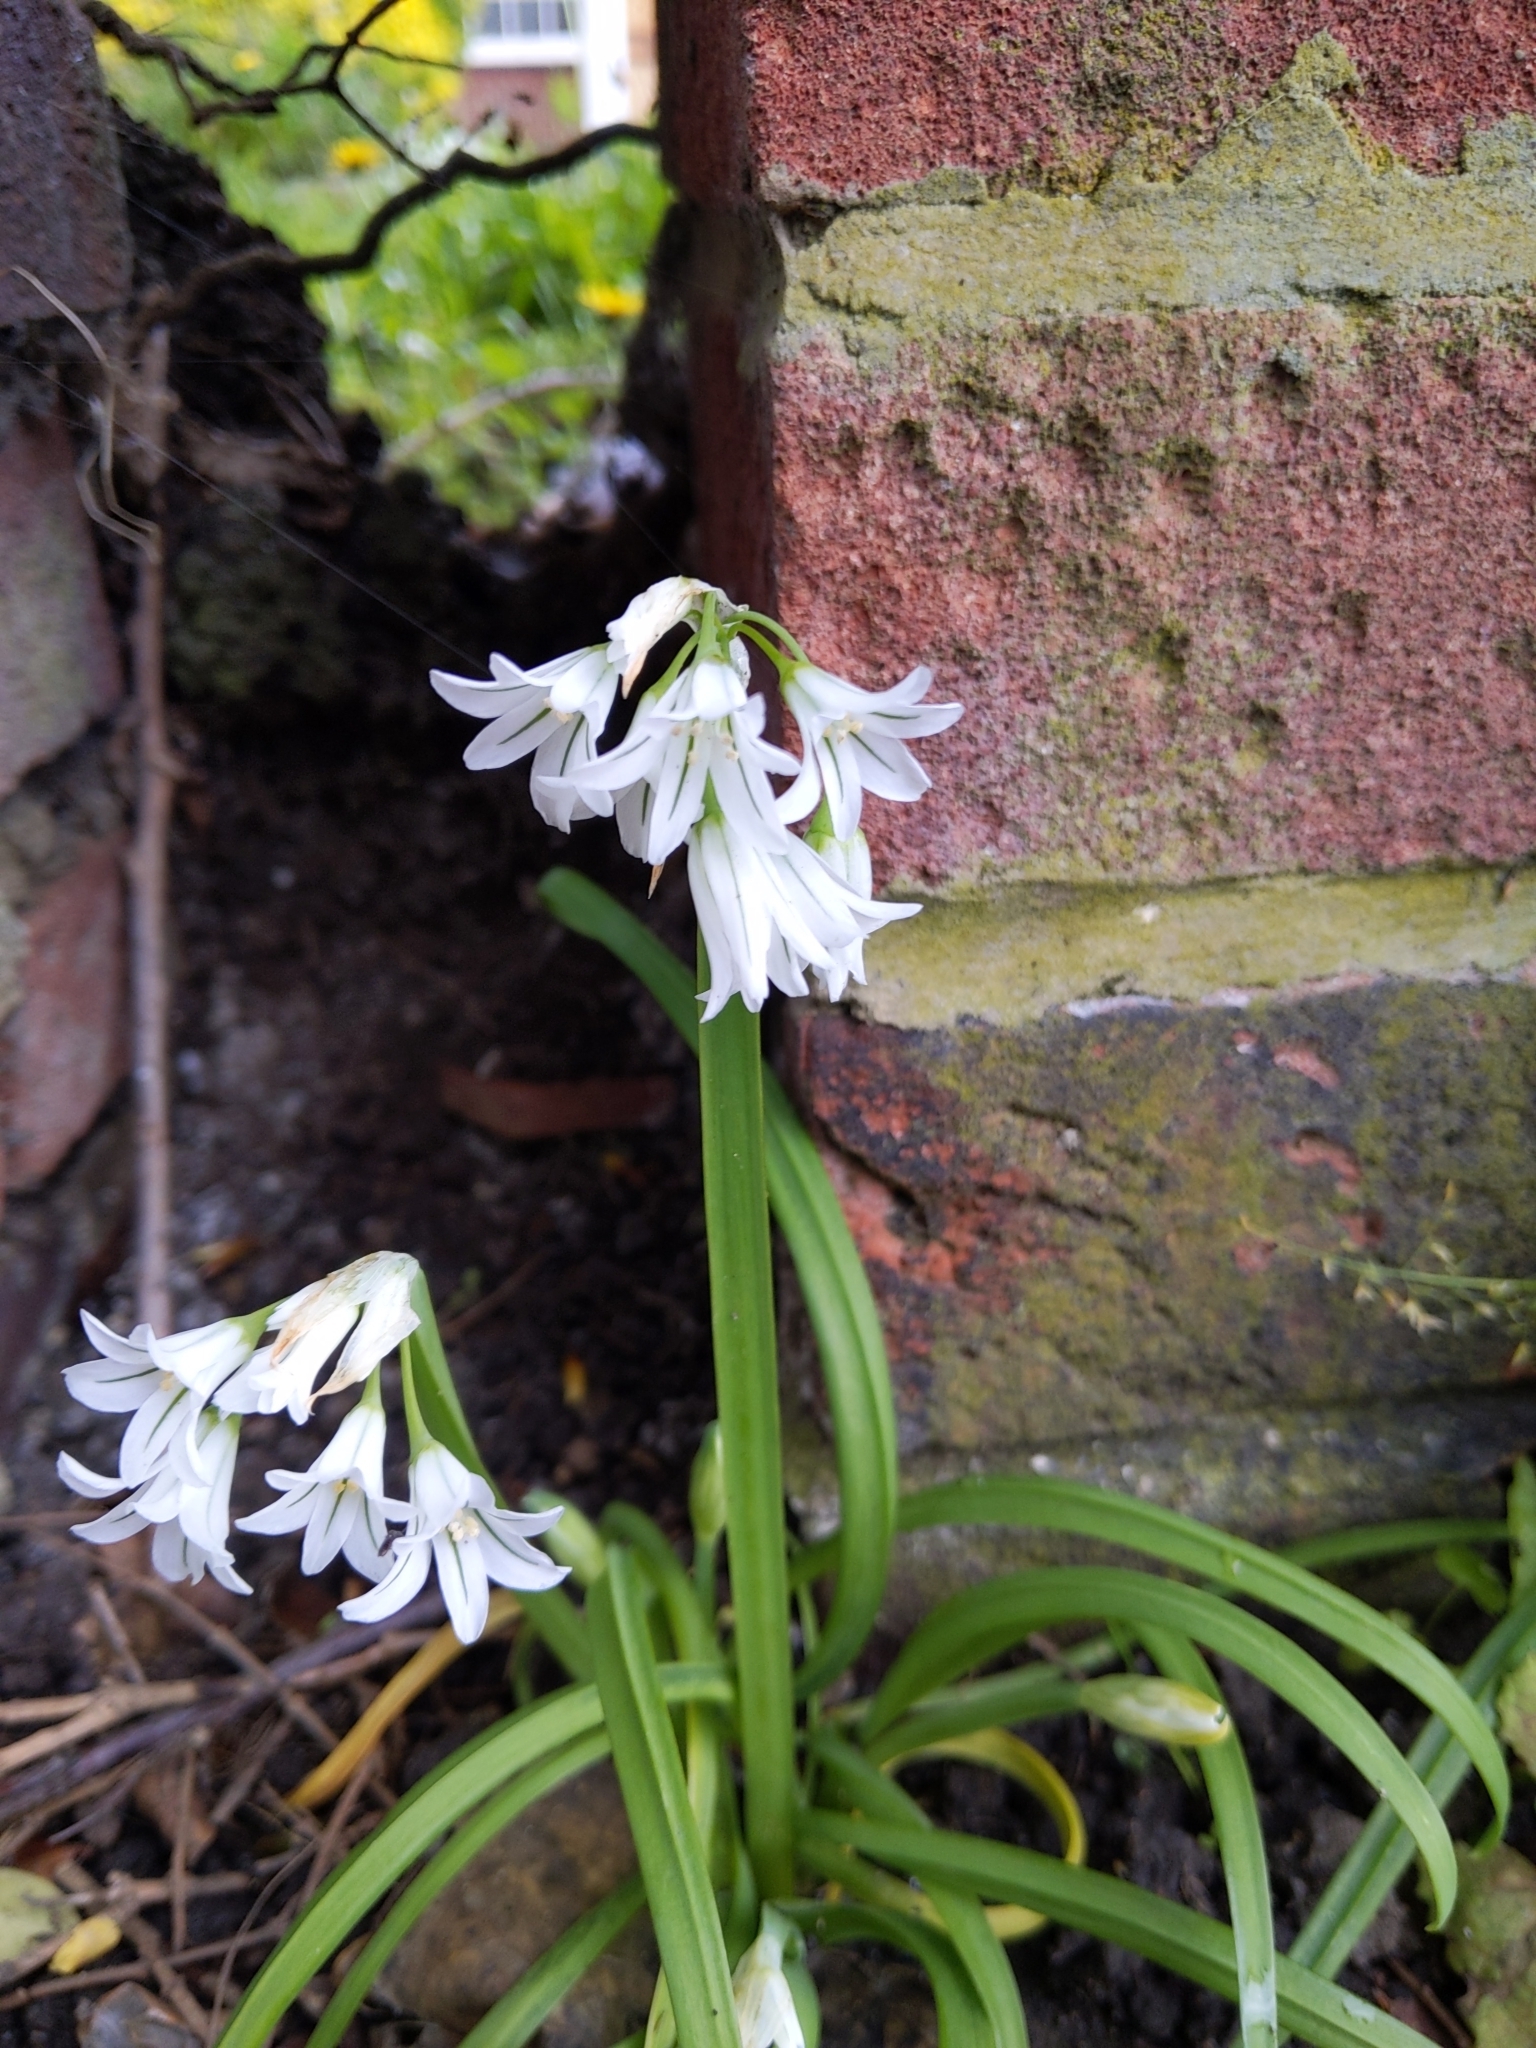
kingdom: Plantae
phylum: Tracheophyta
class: Liliopsida
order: Asparagales
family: Amaryllidaceae
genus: Allium
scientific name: Allium triquetrum
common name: Three-cornered garlic
